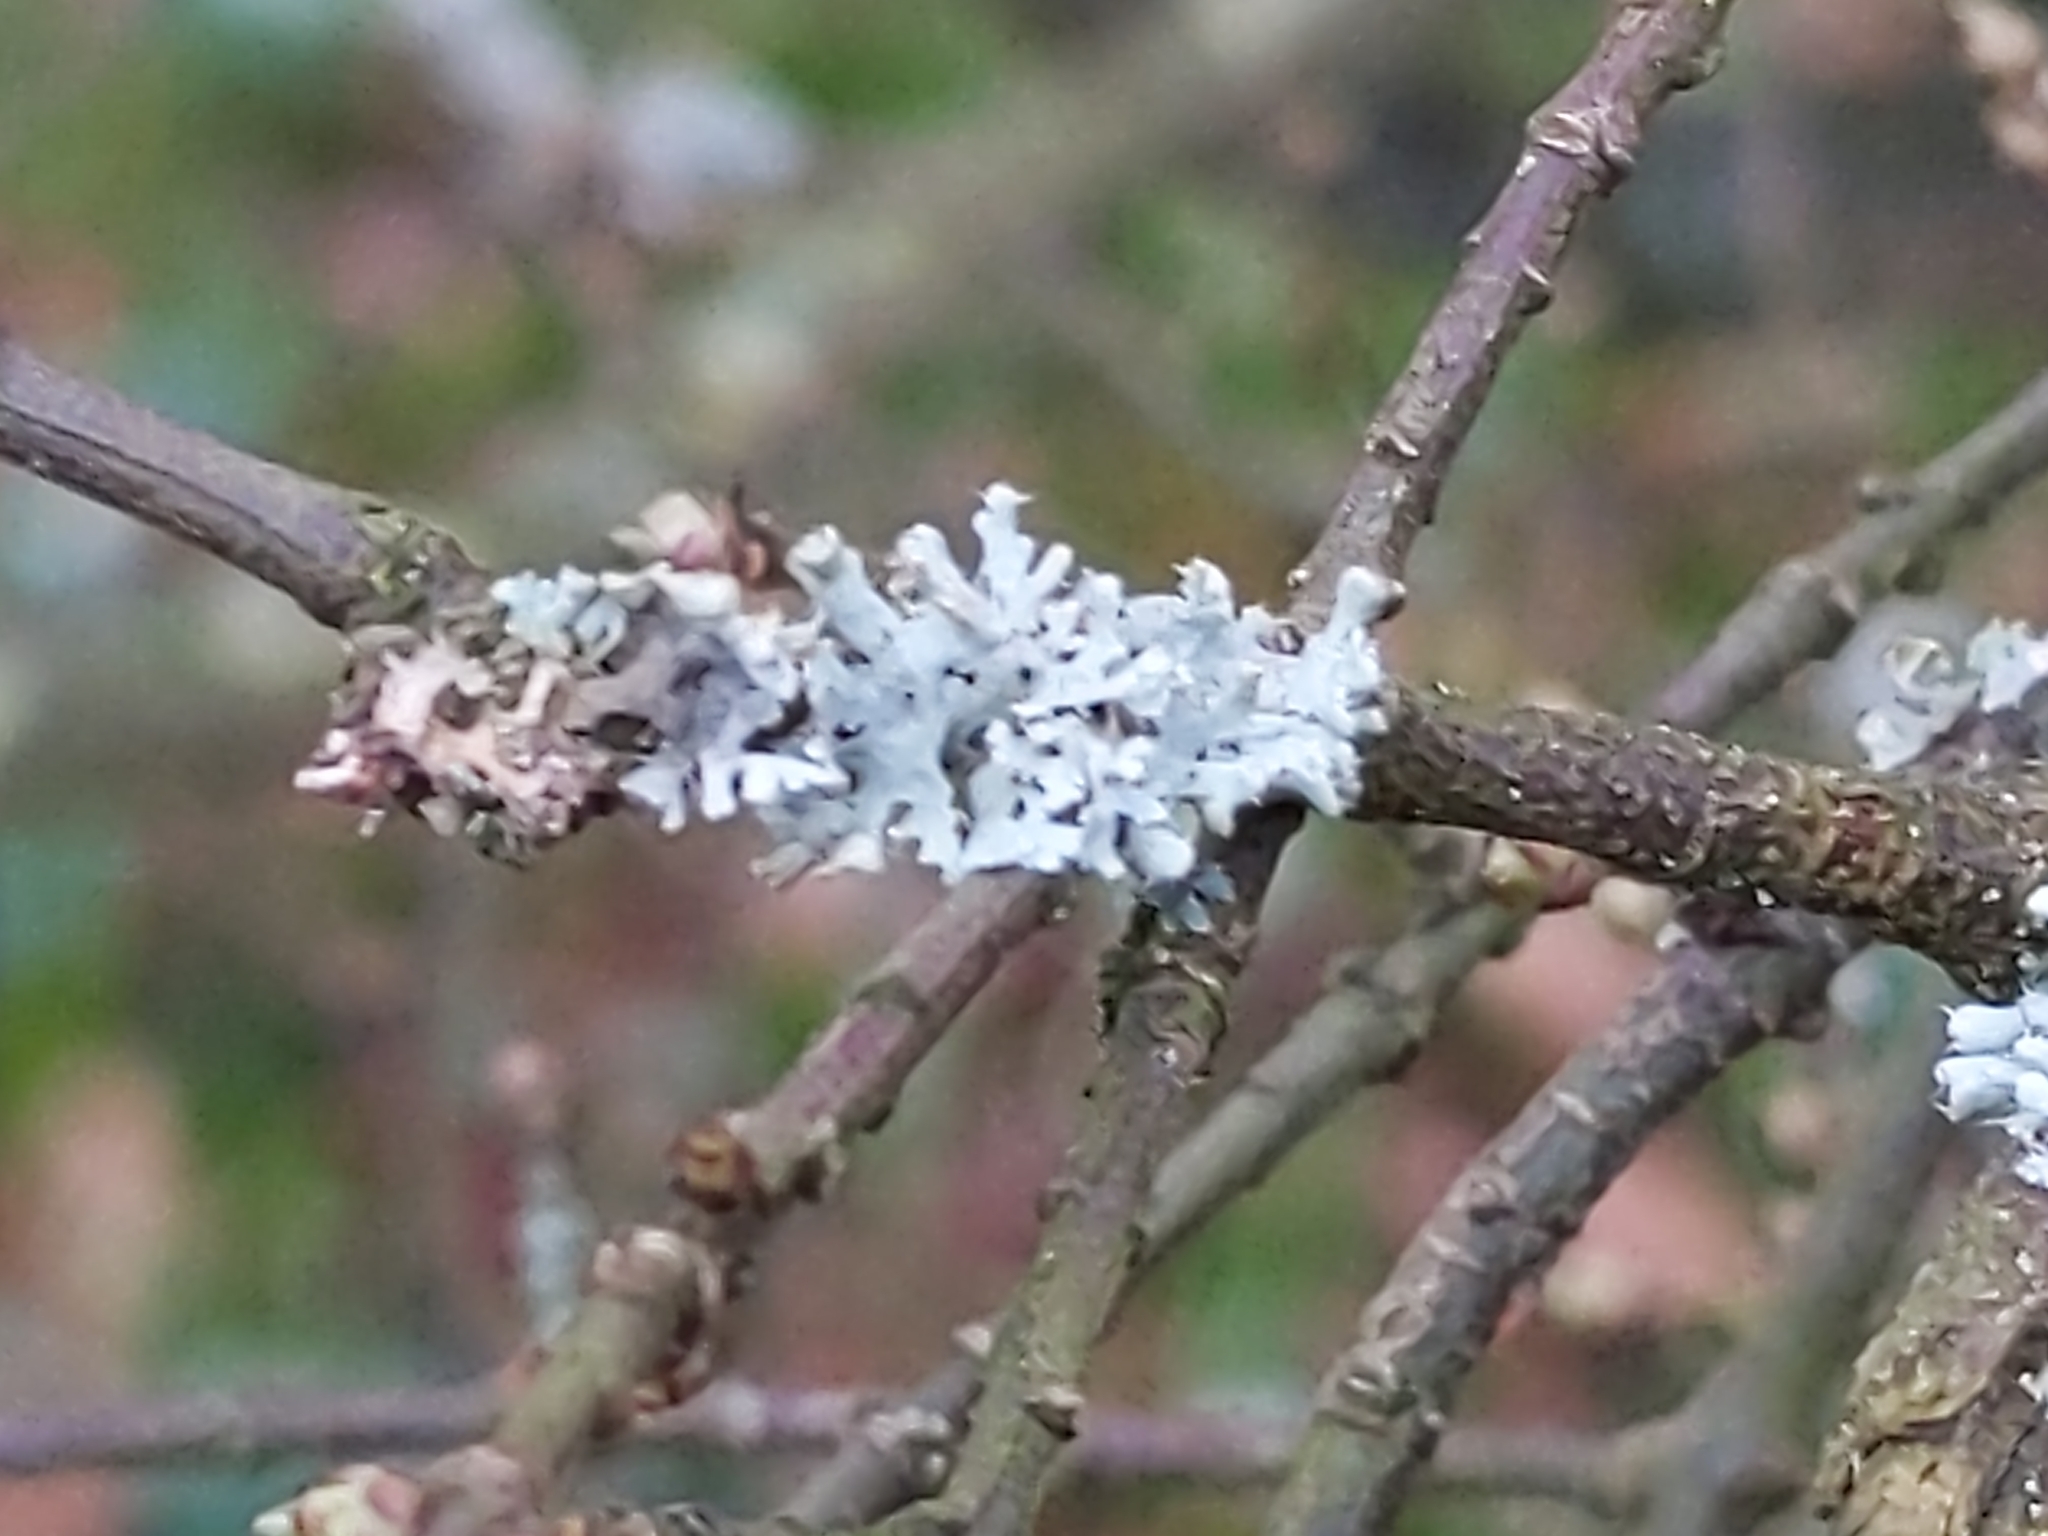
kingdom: Fungi
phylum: Ascomycota
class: Lecanoromycetes
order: Caliciales
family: Physciaceae
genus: Physcia
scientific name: Physcia adscendens
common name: Hooded rosette lichen
